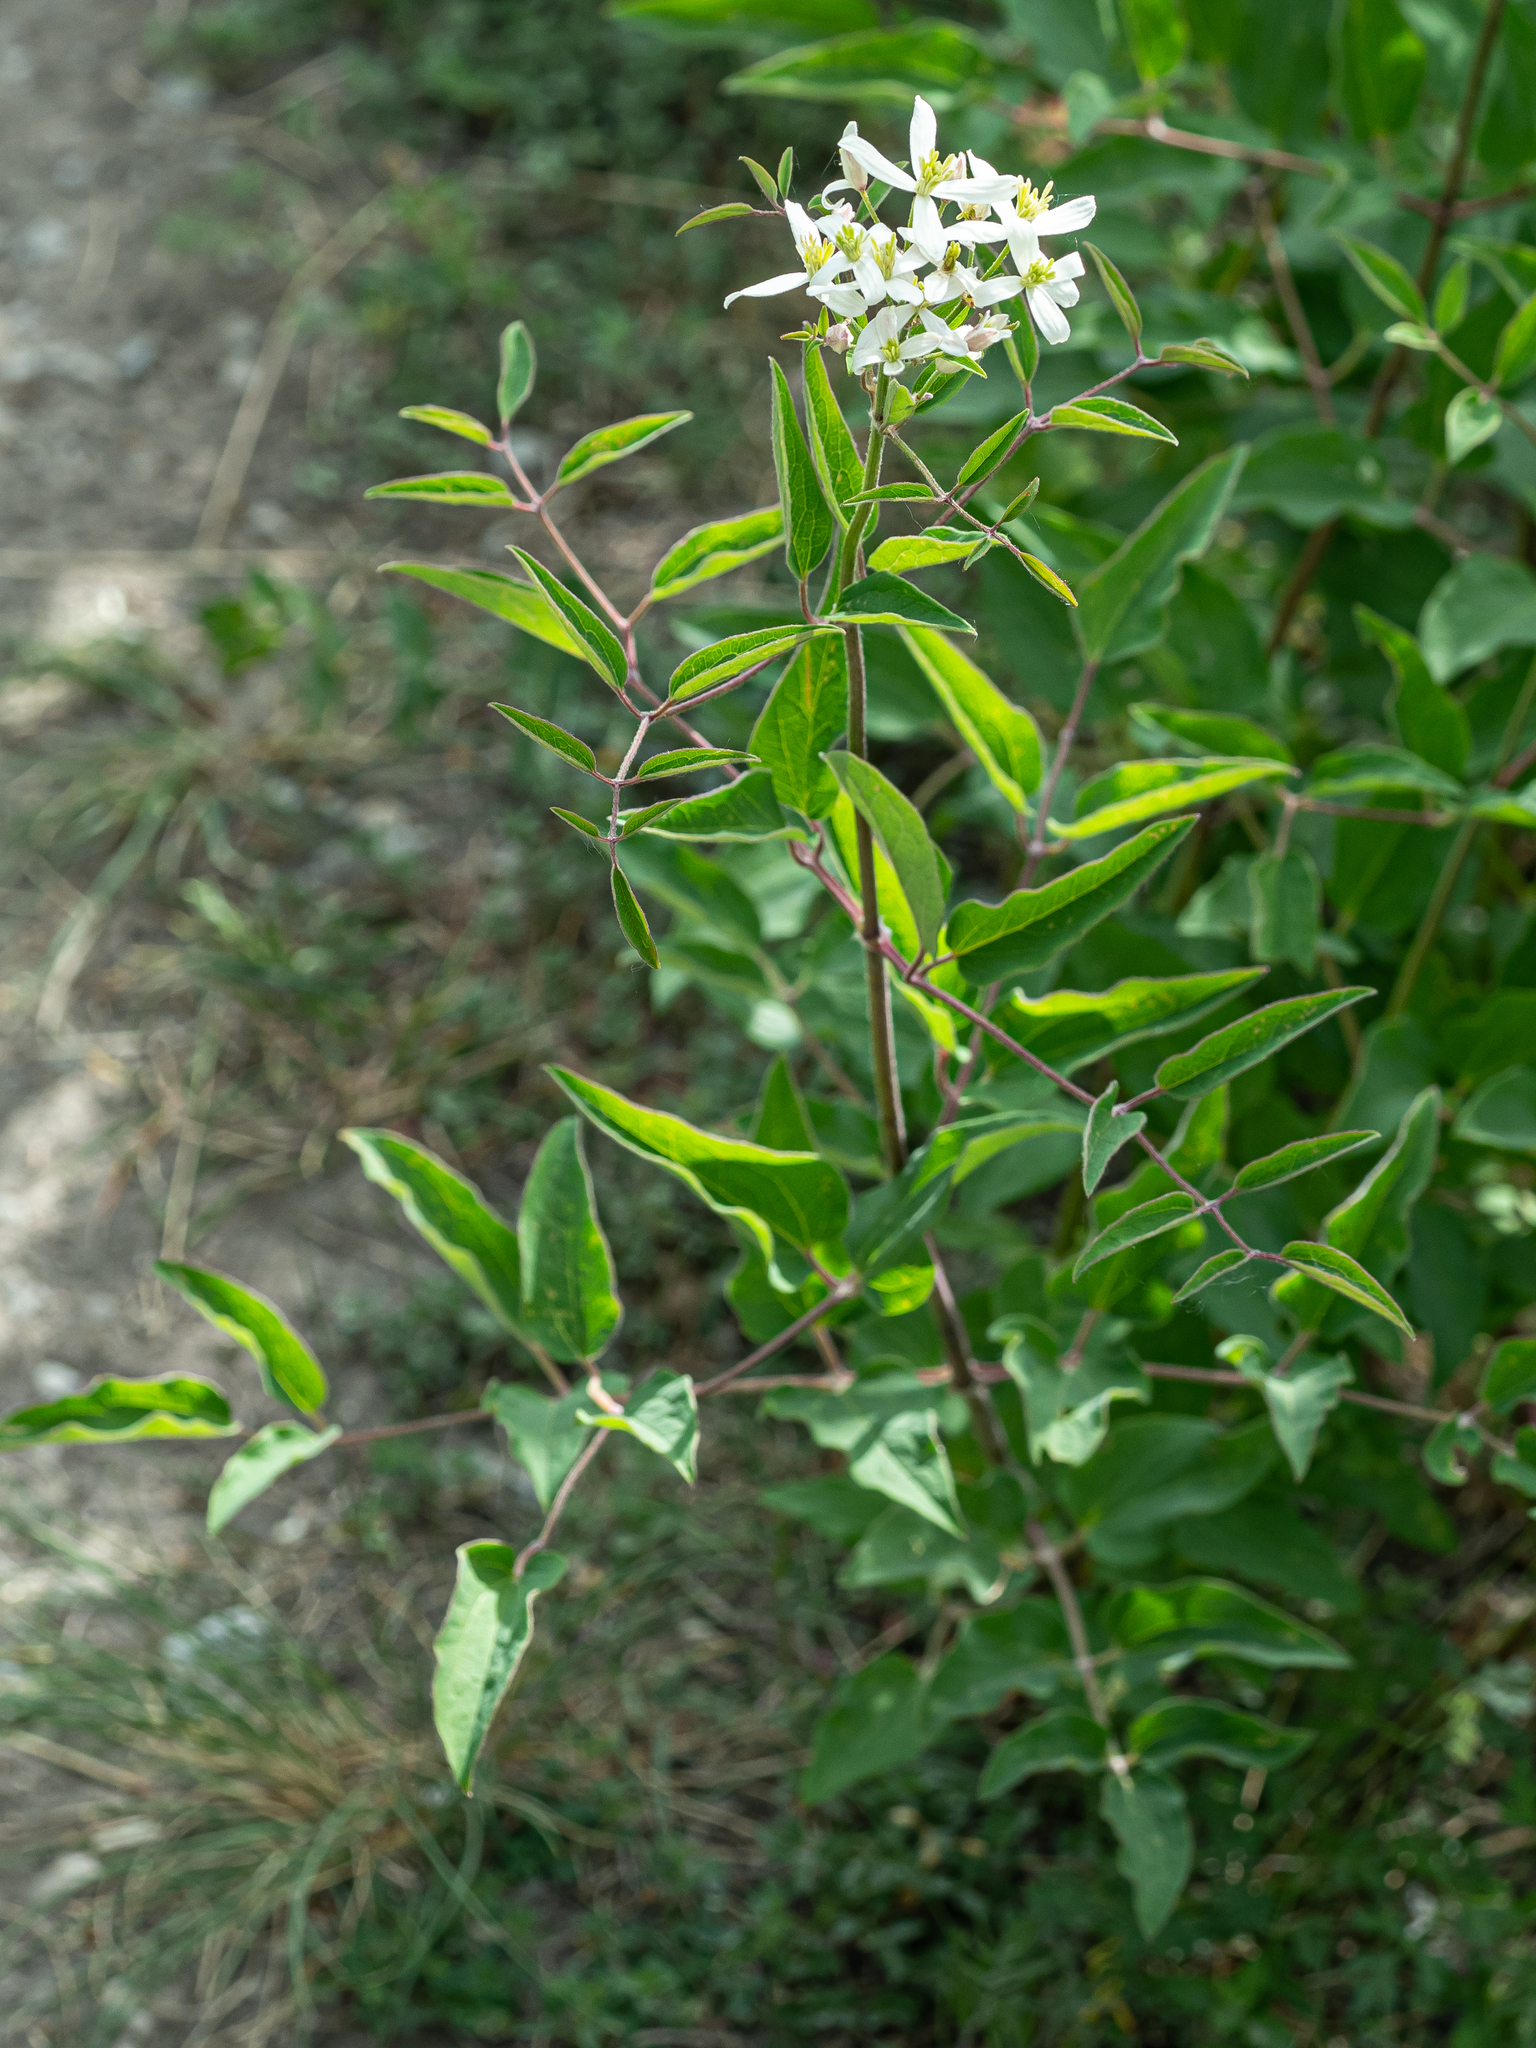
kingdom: Plantae
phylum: Tracheophyta
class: Magnoliopsida
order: Ranunculales
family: Ranunculaceae
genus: Clematis
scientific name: Clematis recta
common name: Ground clematis
